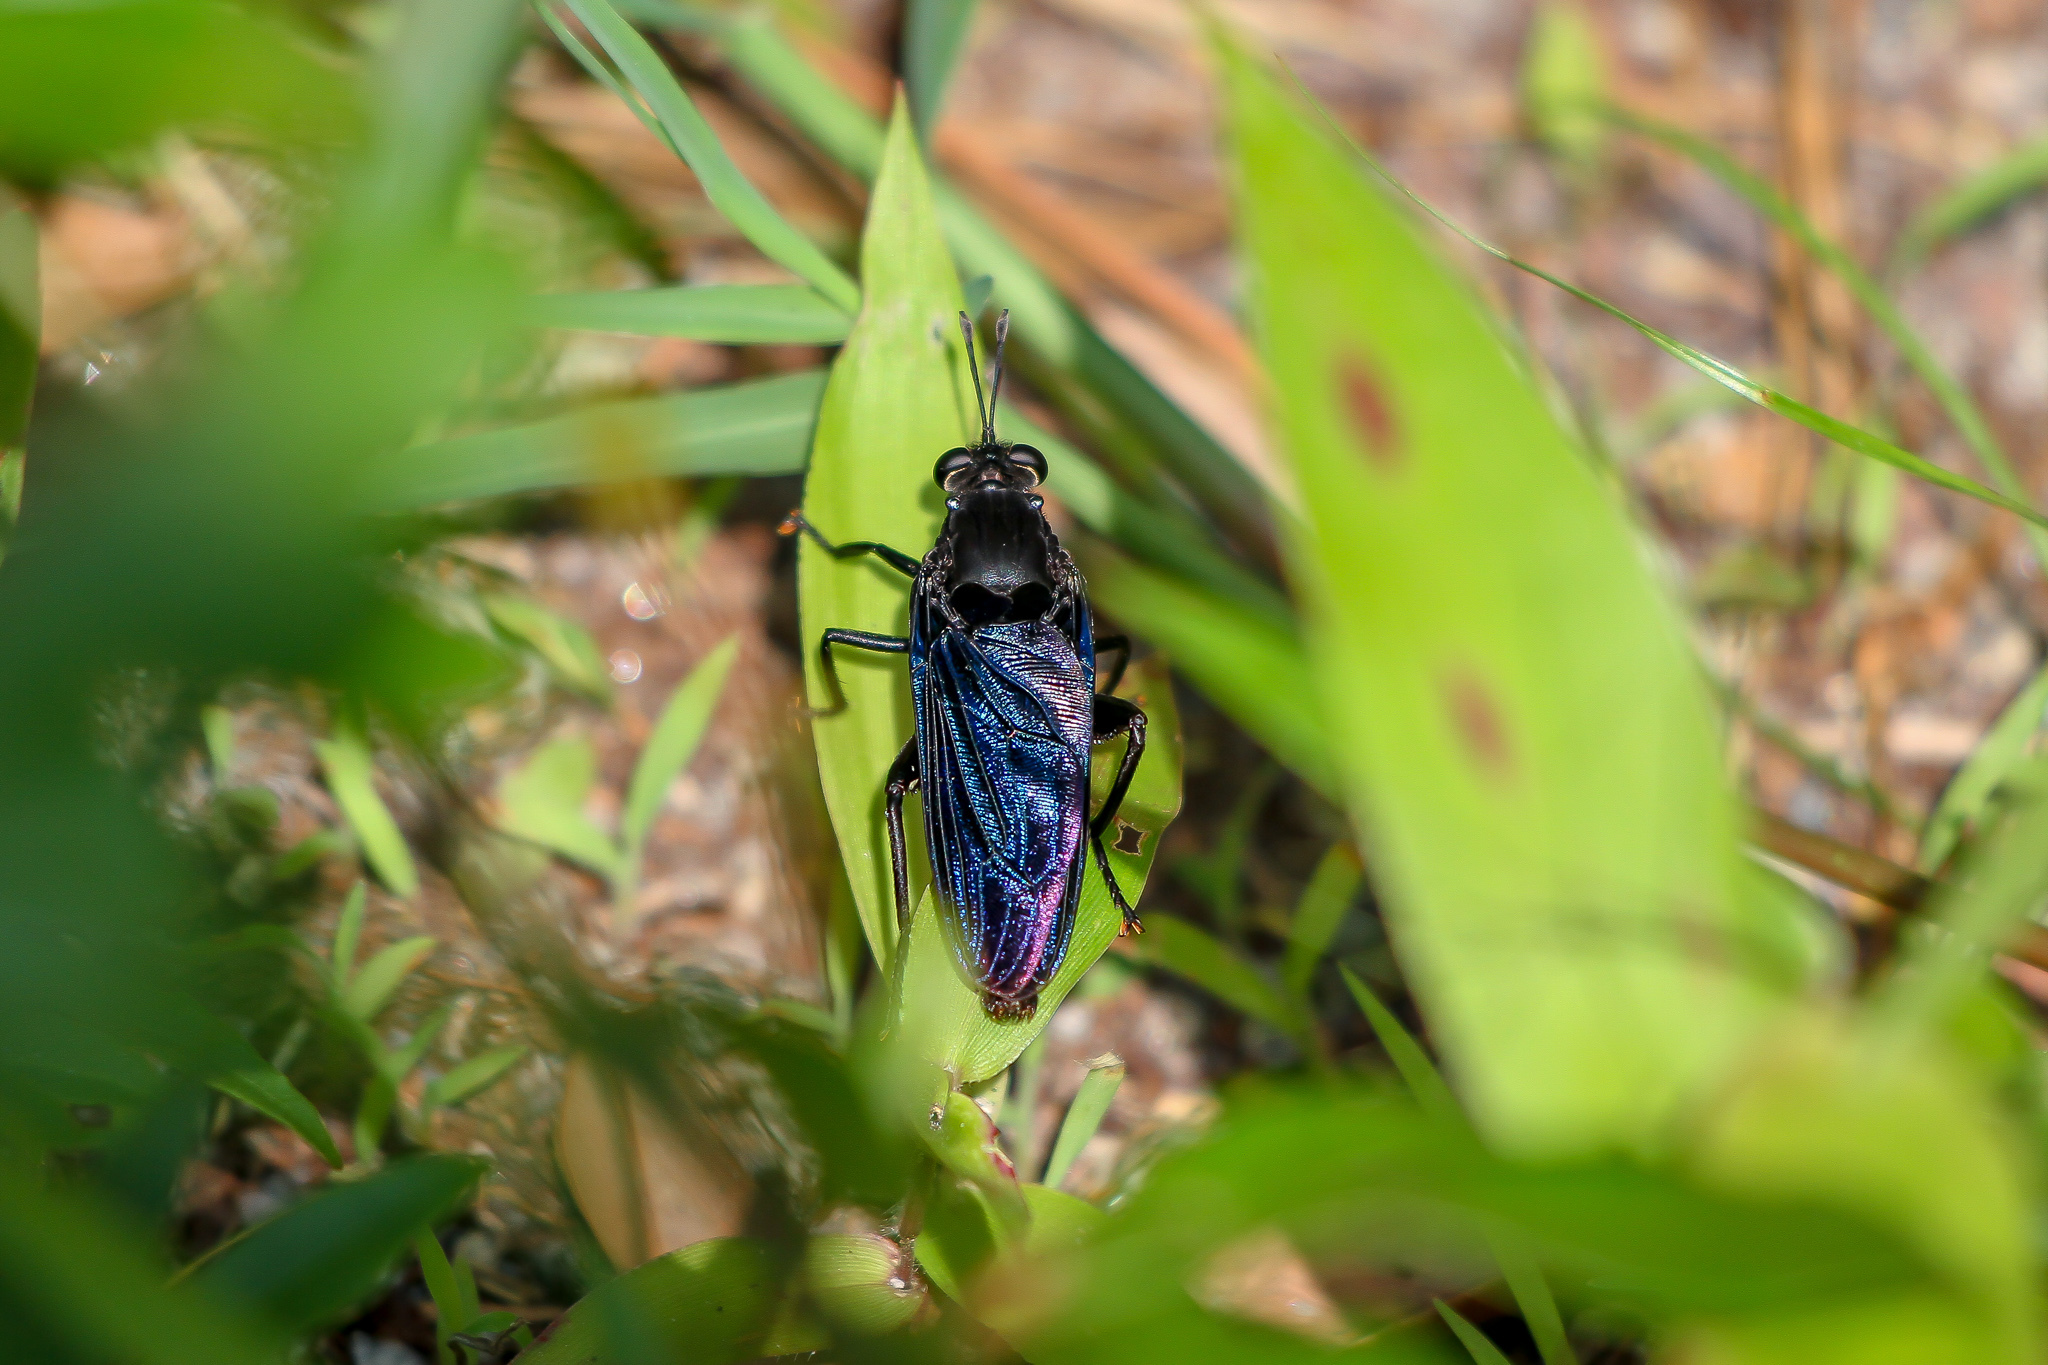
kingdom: Animalia
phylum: Arthropoda
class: Insecta
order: Diptera
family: Mydidae
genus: Mydas
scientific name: Mydas clavatus
